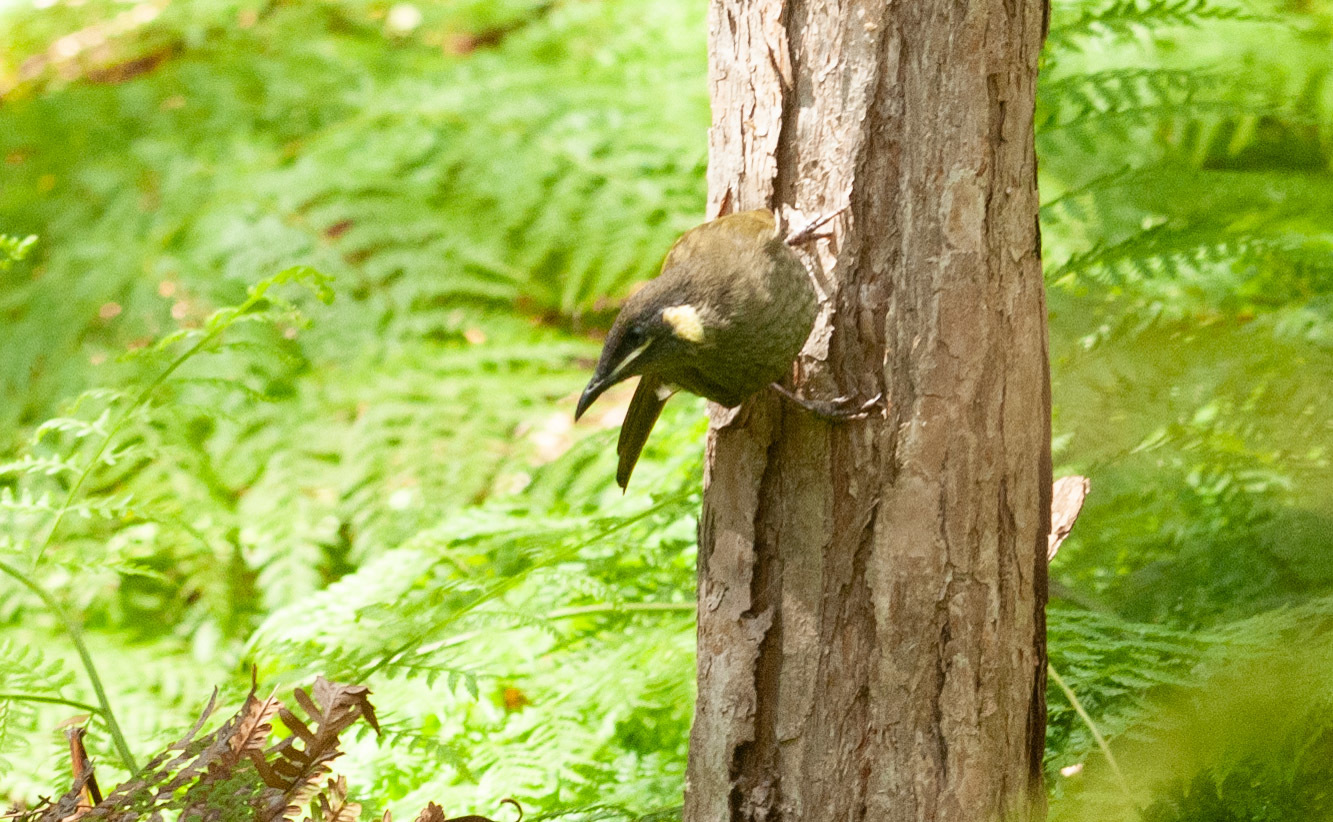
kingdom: Animalia
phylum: Chordata
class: Aves
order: Passeriformes
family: Meliphagidae
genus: Meliphaga
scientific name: Meliphaga lewinii
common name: Lewin's honeyeater
